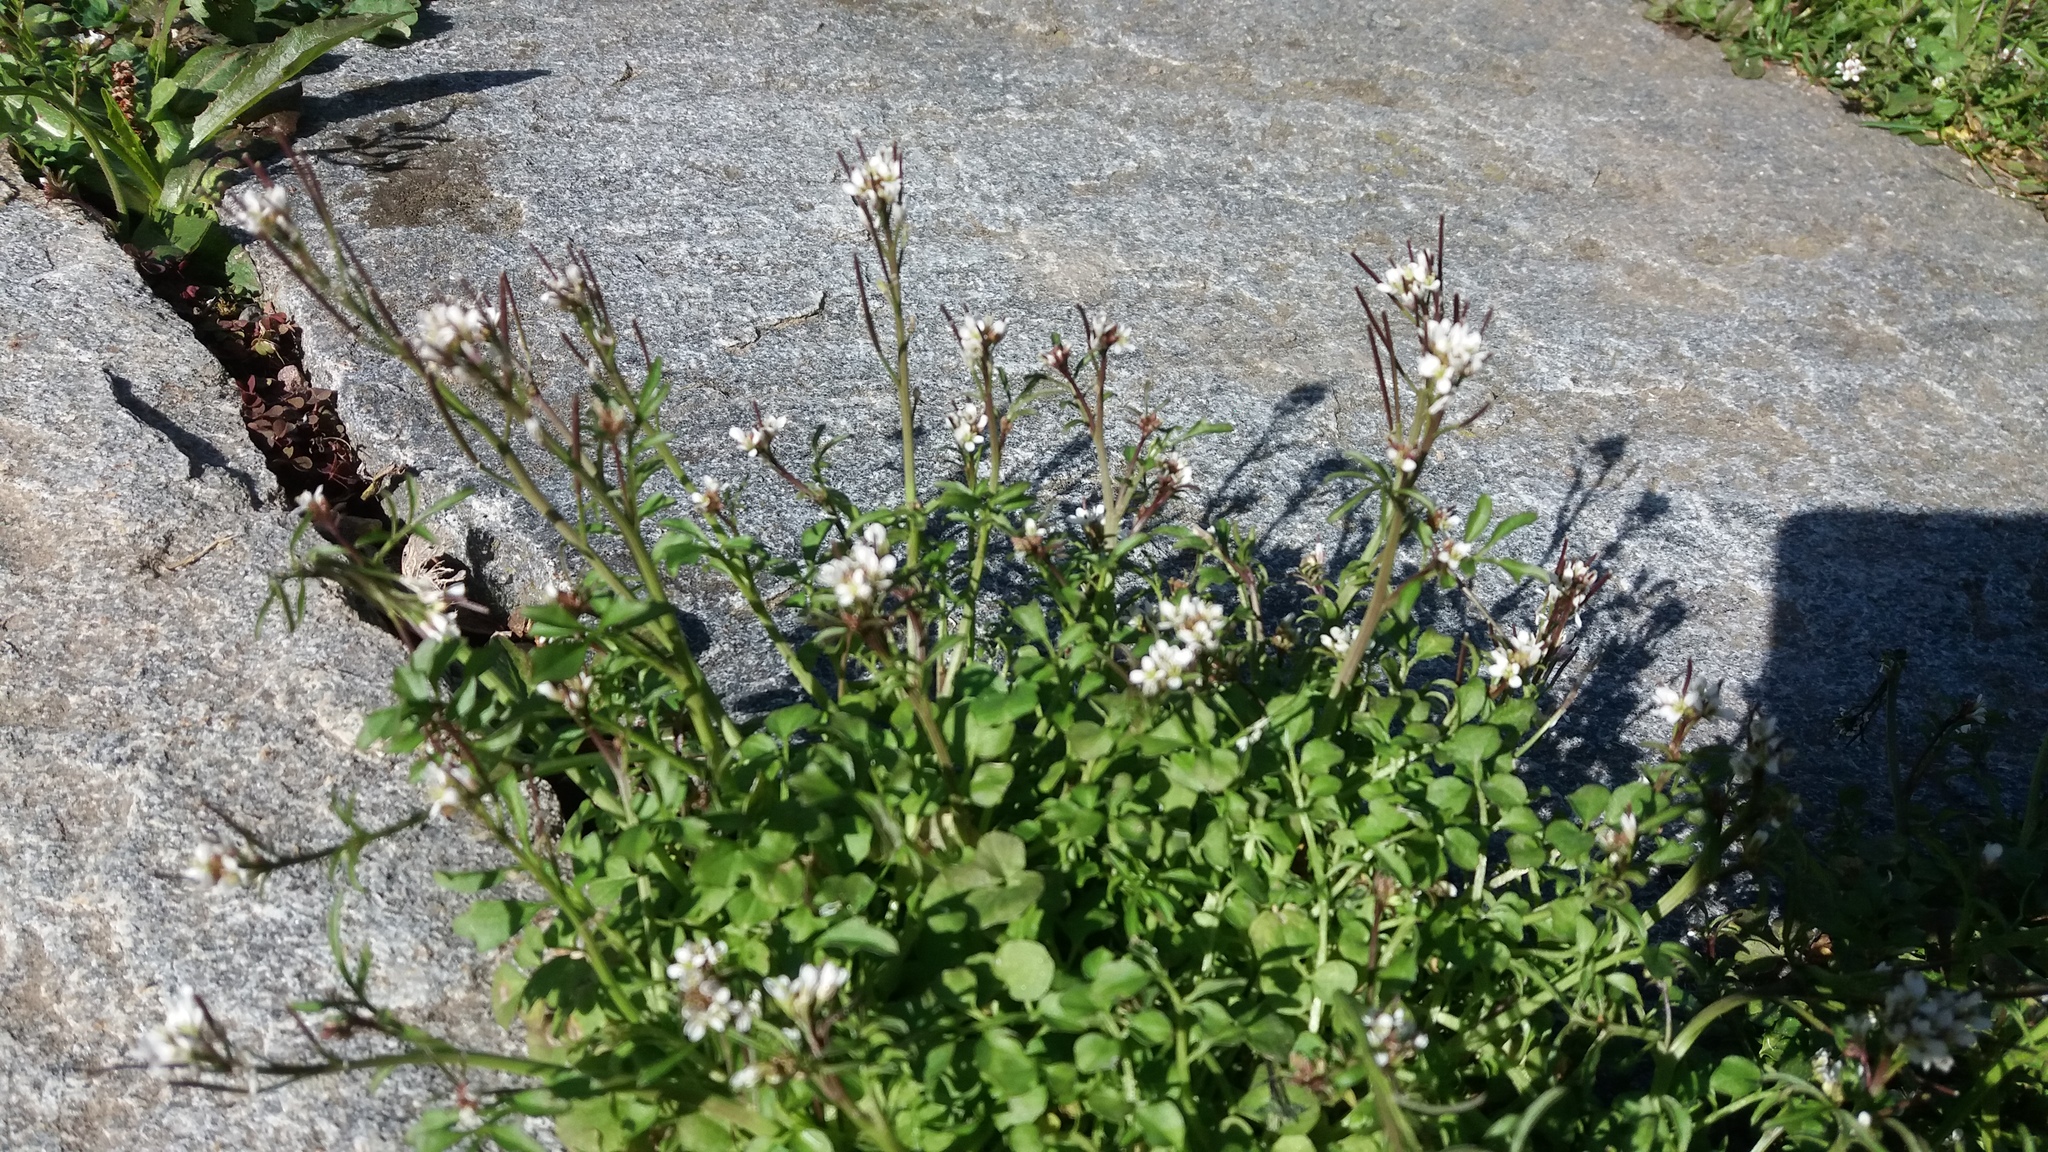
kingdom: Plantae
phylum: Tracheophyta
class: Magnoliopsida
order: Brassicales
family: Brassicaceae
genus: Cardamine
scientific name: Cardamine hirsuta
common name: Hairy bittercress
